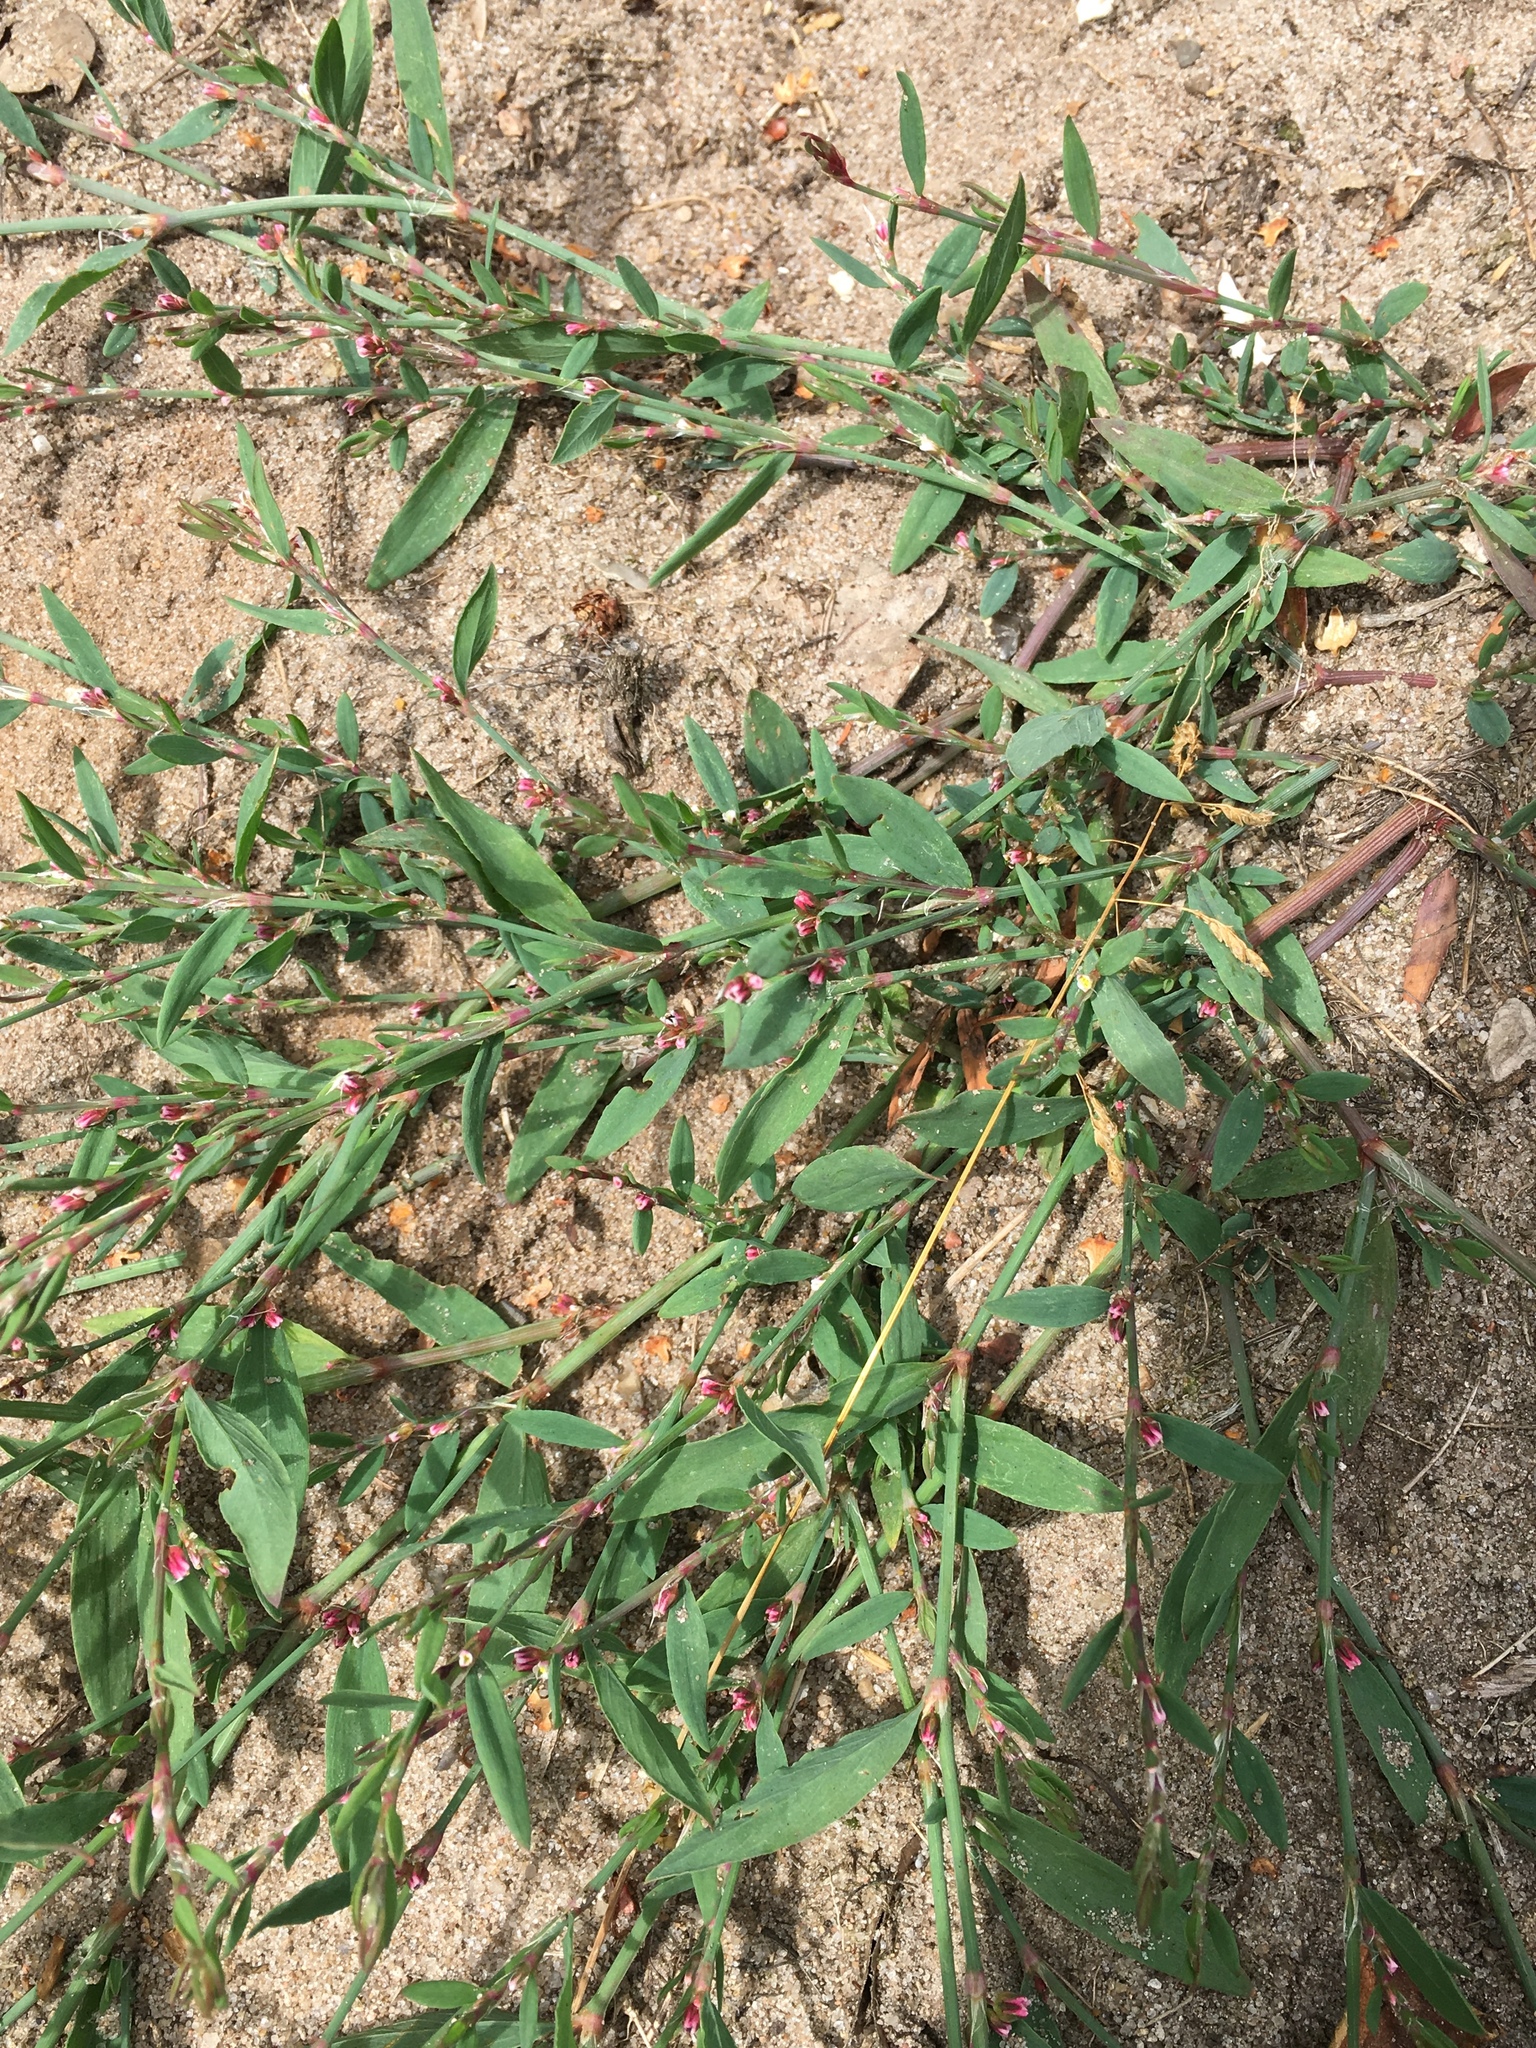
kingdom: Plantae
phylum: Tracheophyta
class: Magnoliopsida
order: Caryophyllales
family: Polygonaceae
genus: Polygonum
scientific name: Polygonum aviculare
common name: Prostrate knotweed
